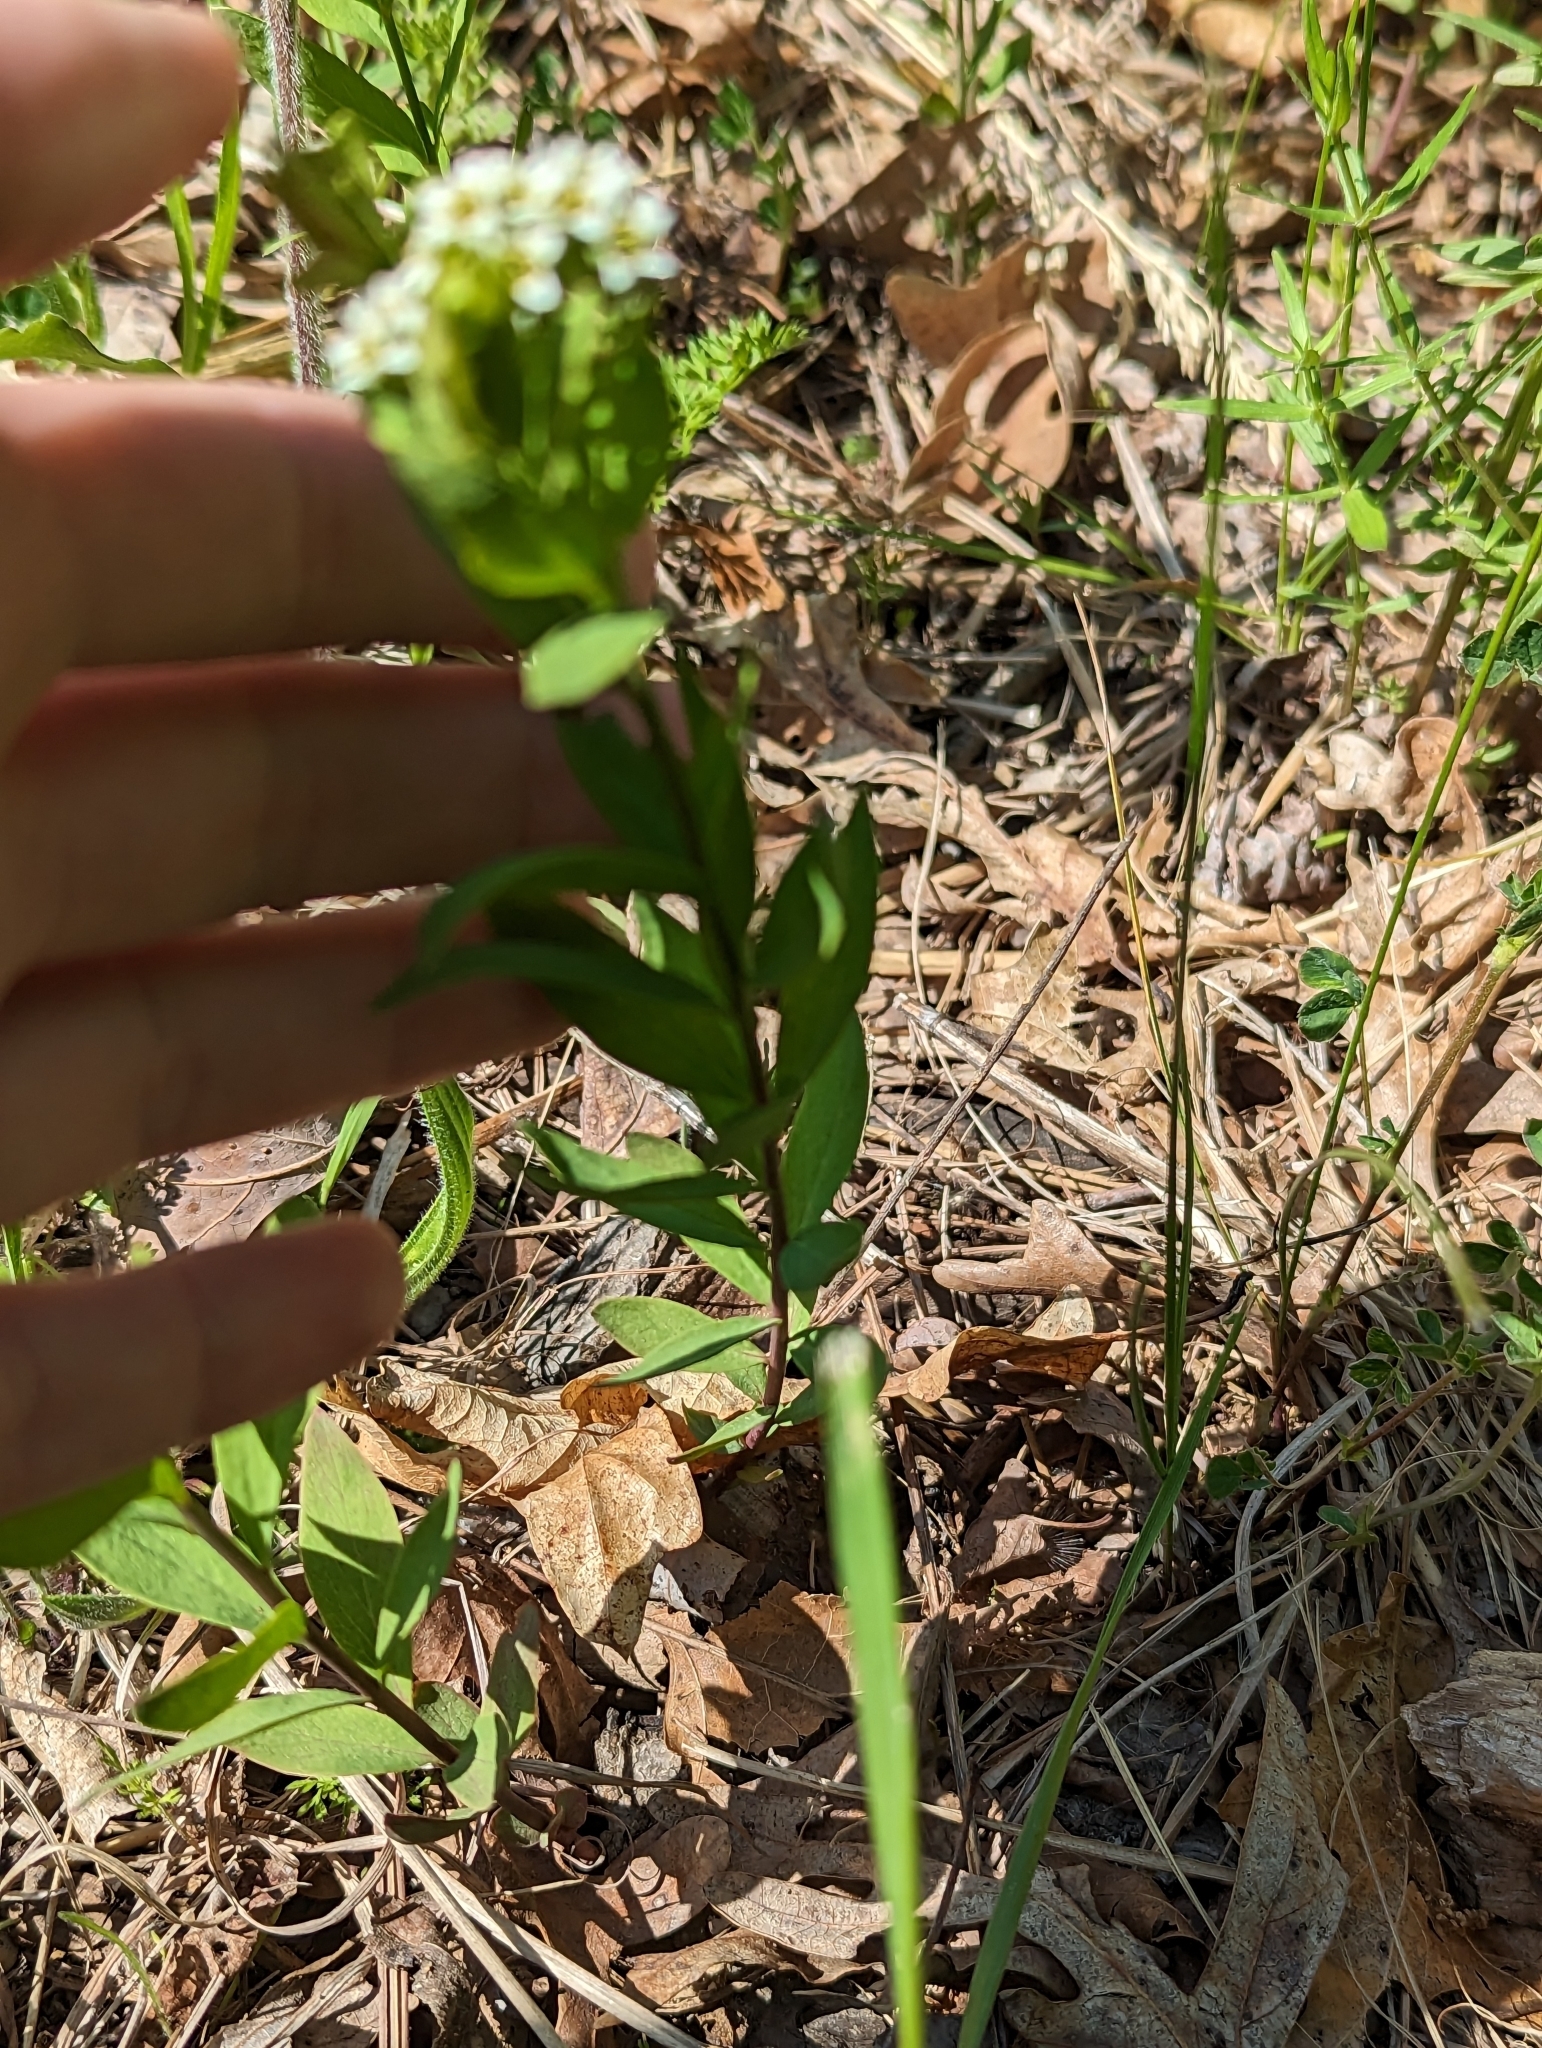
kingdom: Plantae
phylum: Tracheophyta
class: Magnoliopsida
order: Santalales
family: Comandraceae
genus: Comandra
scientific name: Comandra umbellata
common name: Bastard toadflax
